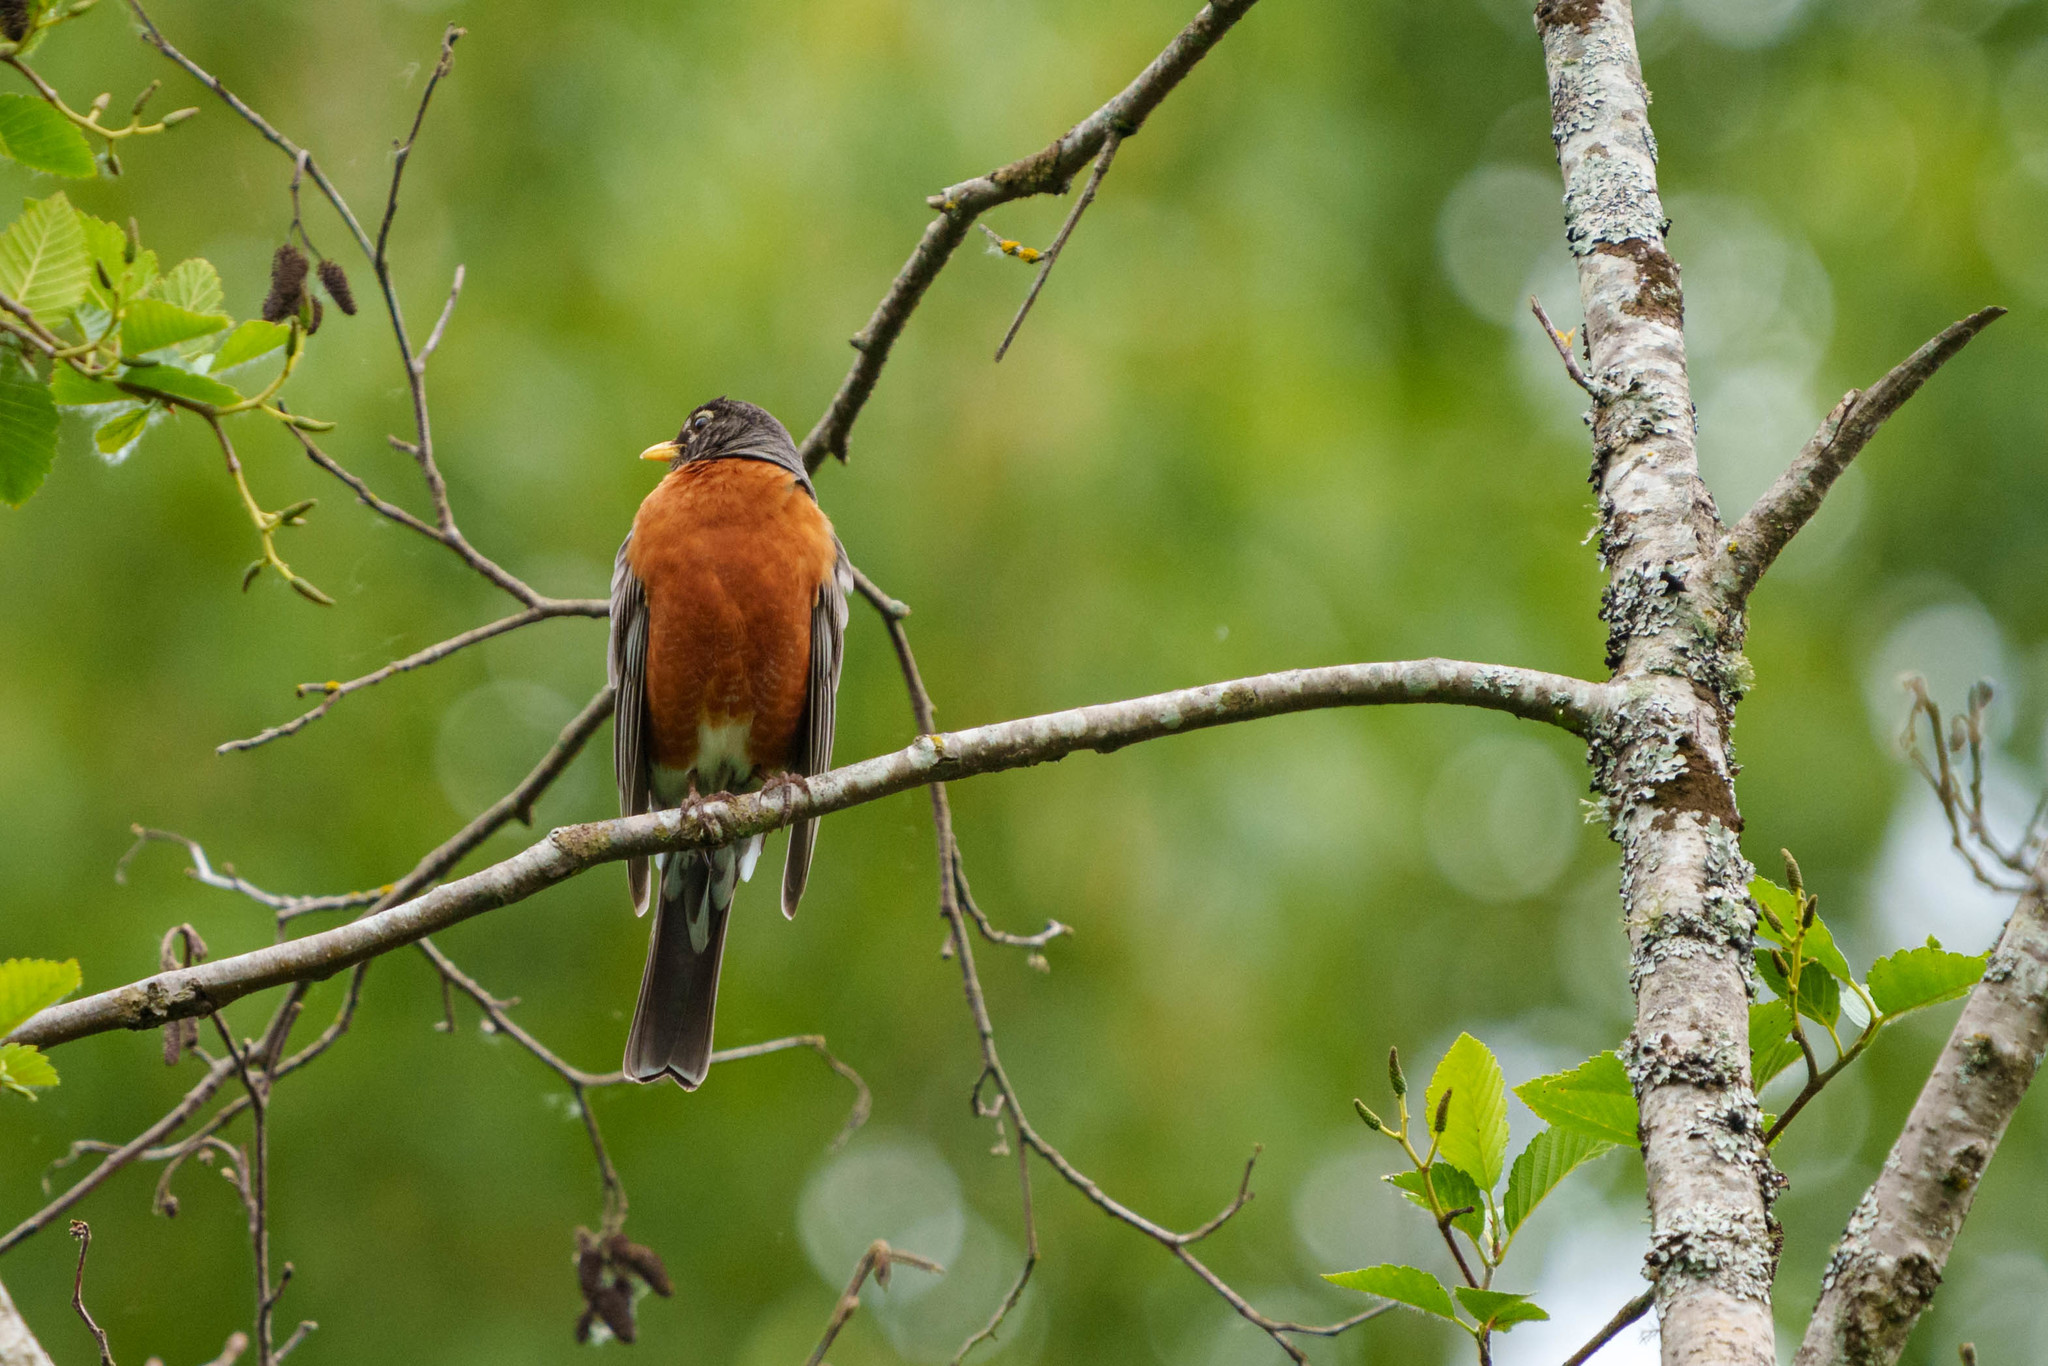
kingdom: Animalia
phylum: Chordata
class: Aves
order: Passeriformes
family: Turdidae
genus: Turdus
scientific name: Turdus migratorius
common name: American robin
